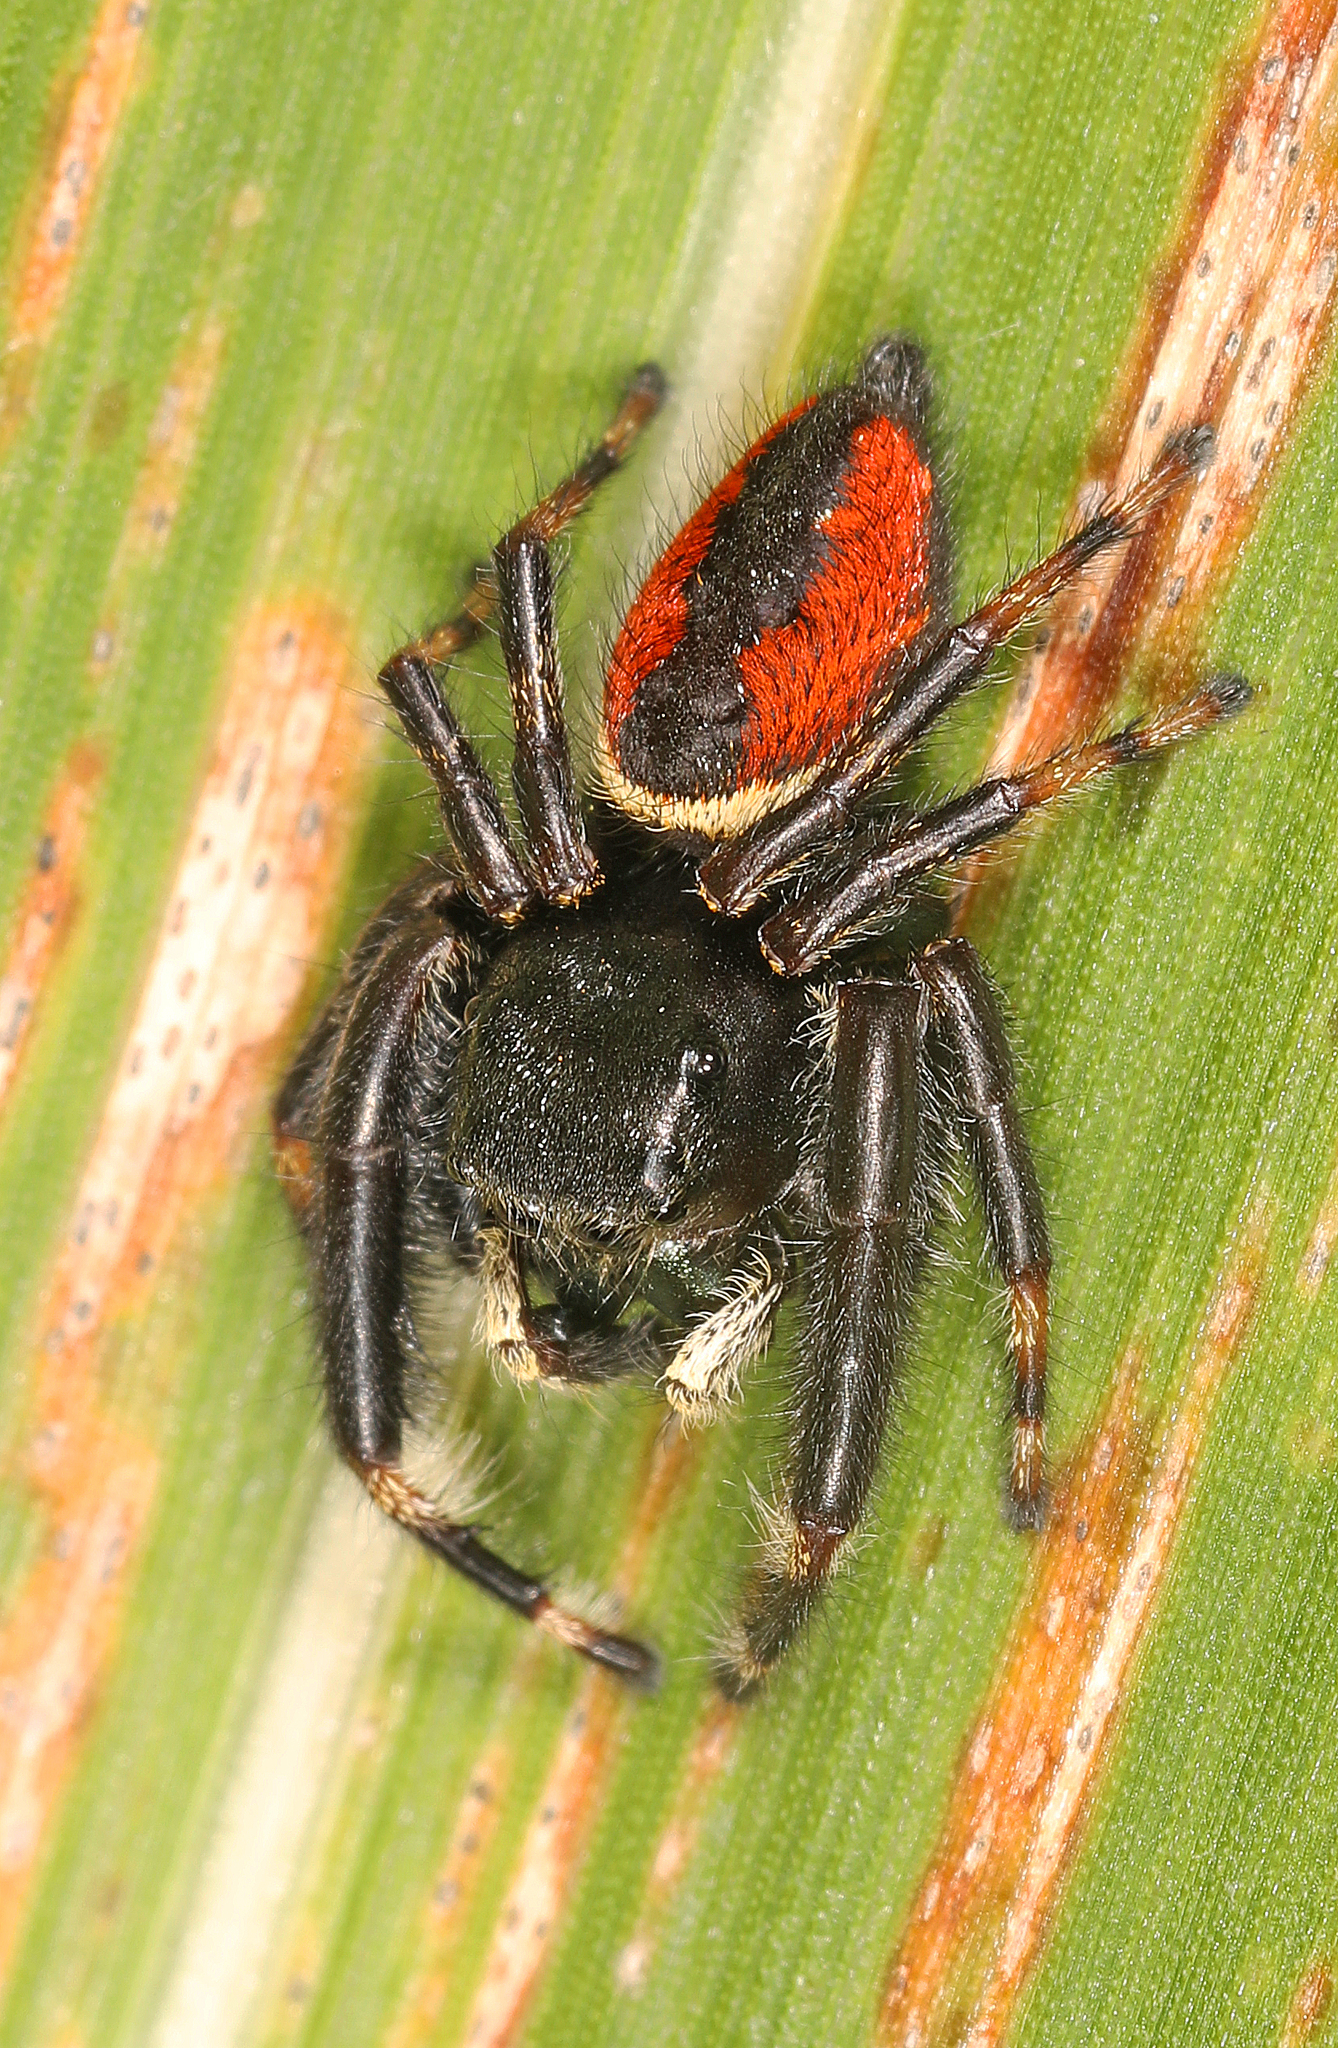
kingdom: Animalia
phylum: Arthropoda
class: Arachnida
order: Araneae
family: Salticidae
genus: Phidippus
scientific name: Phidippus clarus
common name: Brilliant jumping spider
